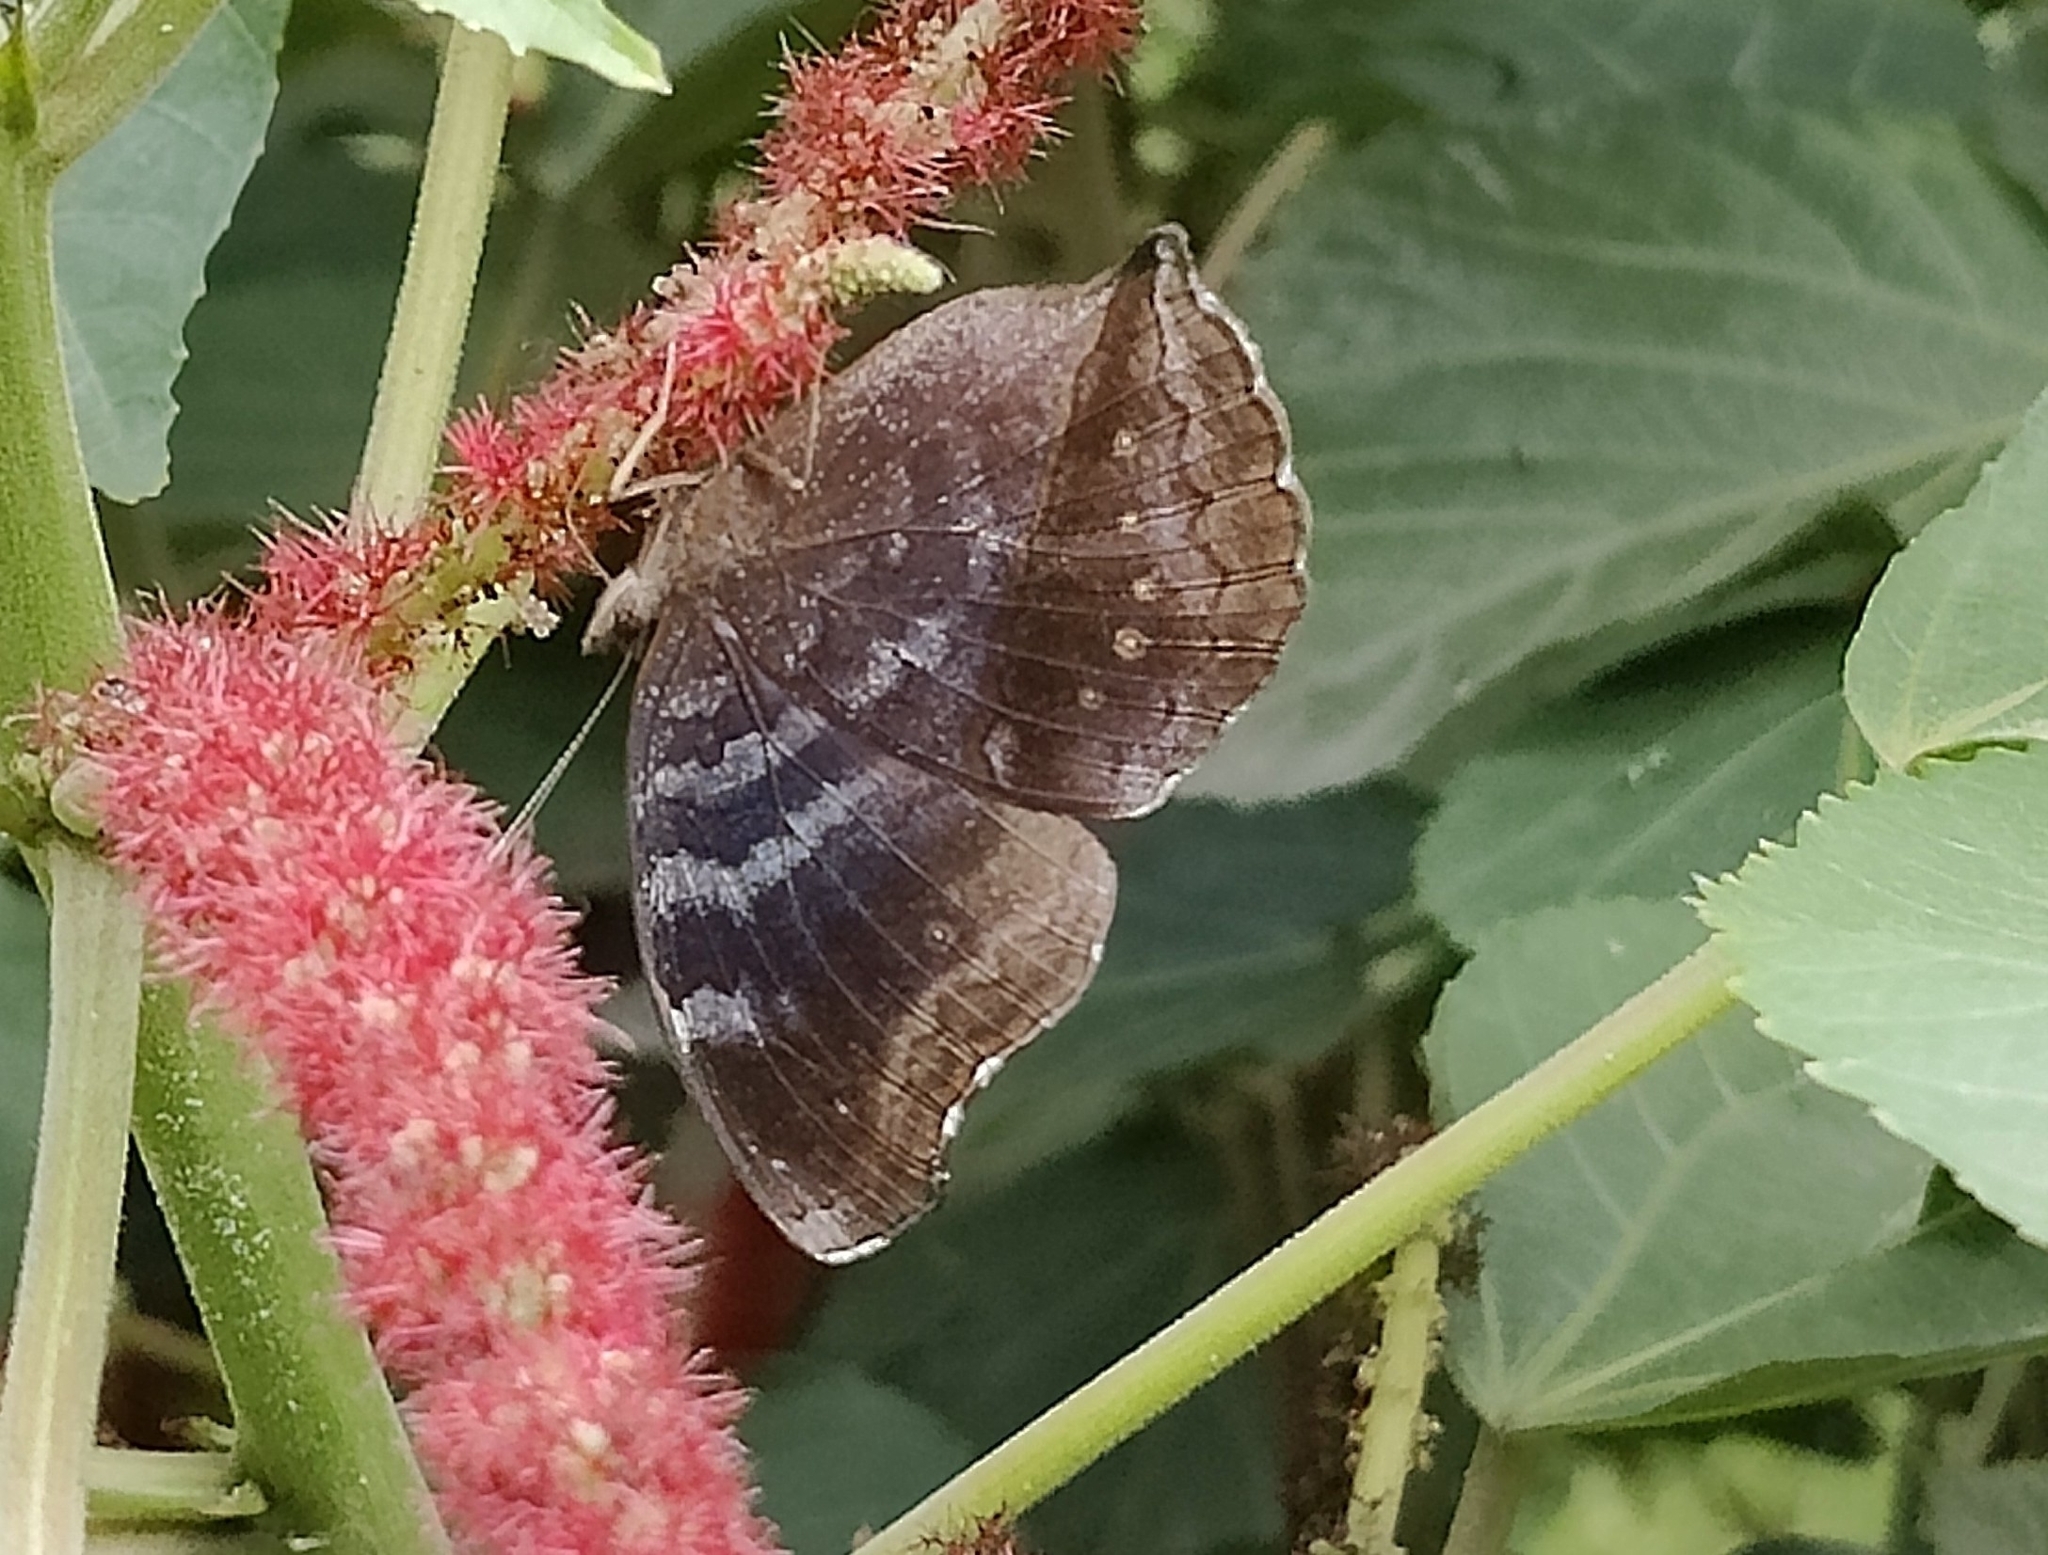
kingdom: Animalia
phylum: Arthropoda
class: Insecta
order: Lepidoptera
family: Nymphalidae
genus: Junonia
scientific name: Junonia iphita
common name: Chocolate pansy
